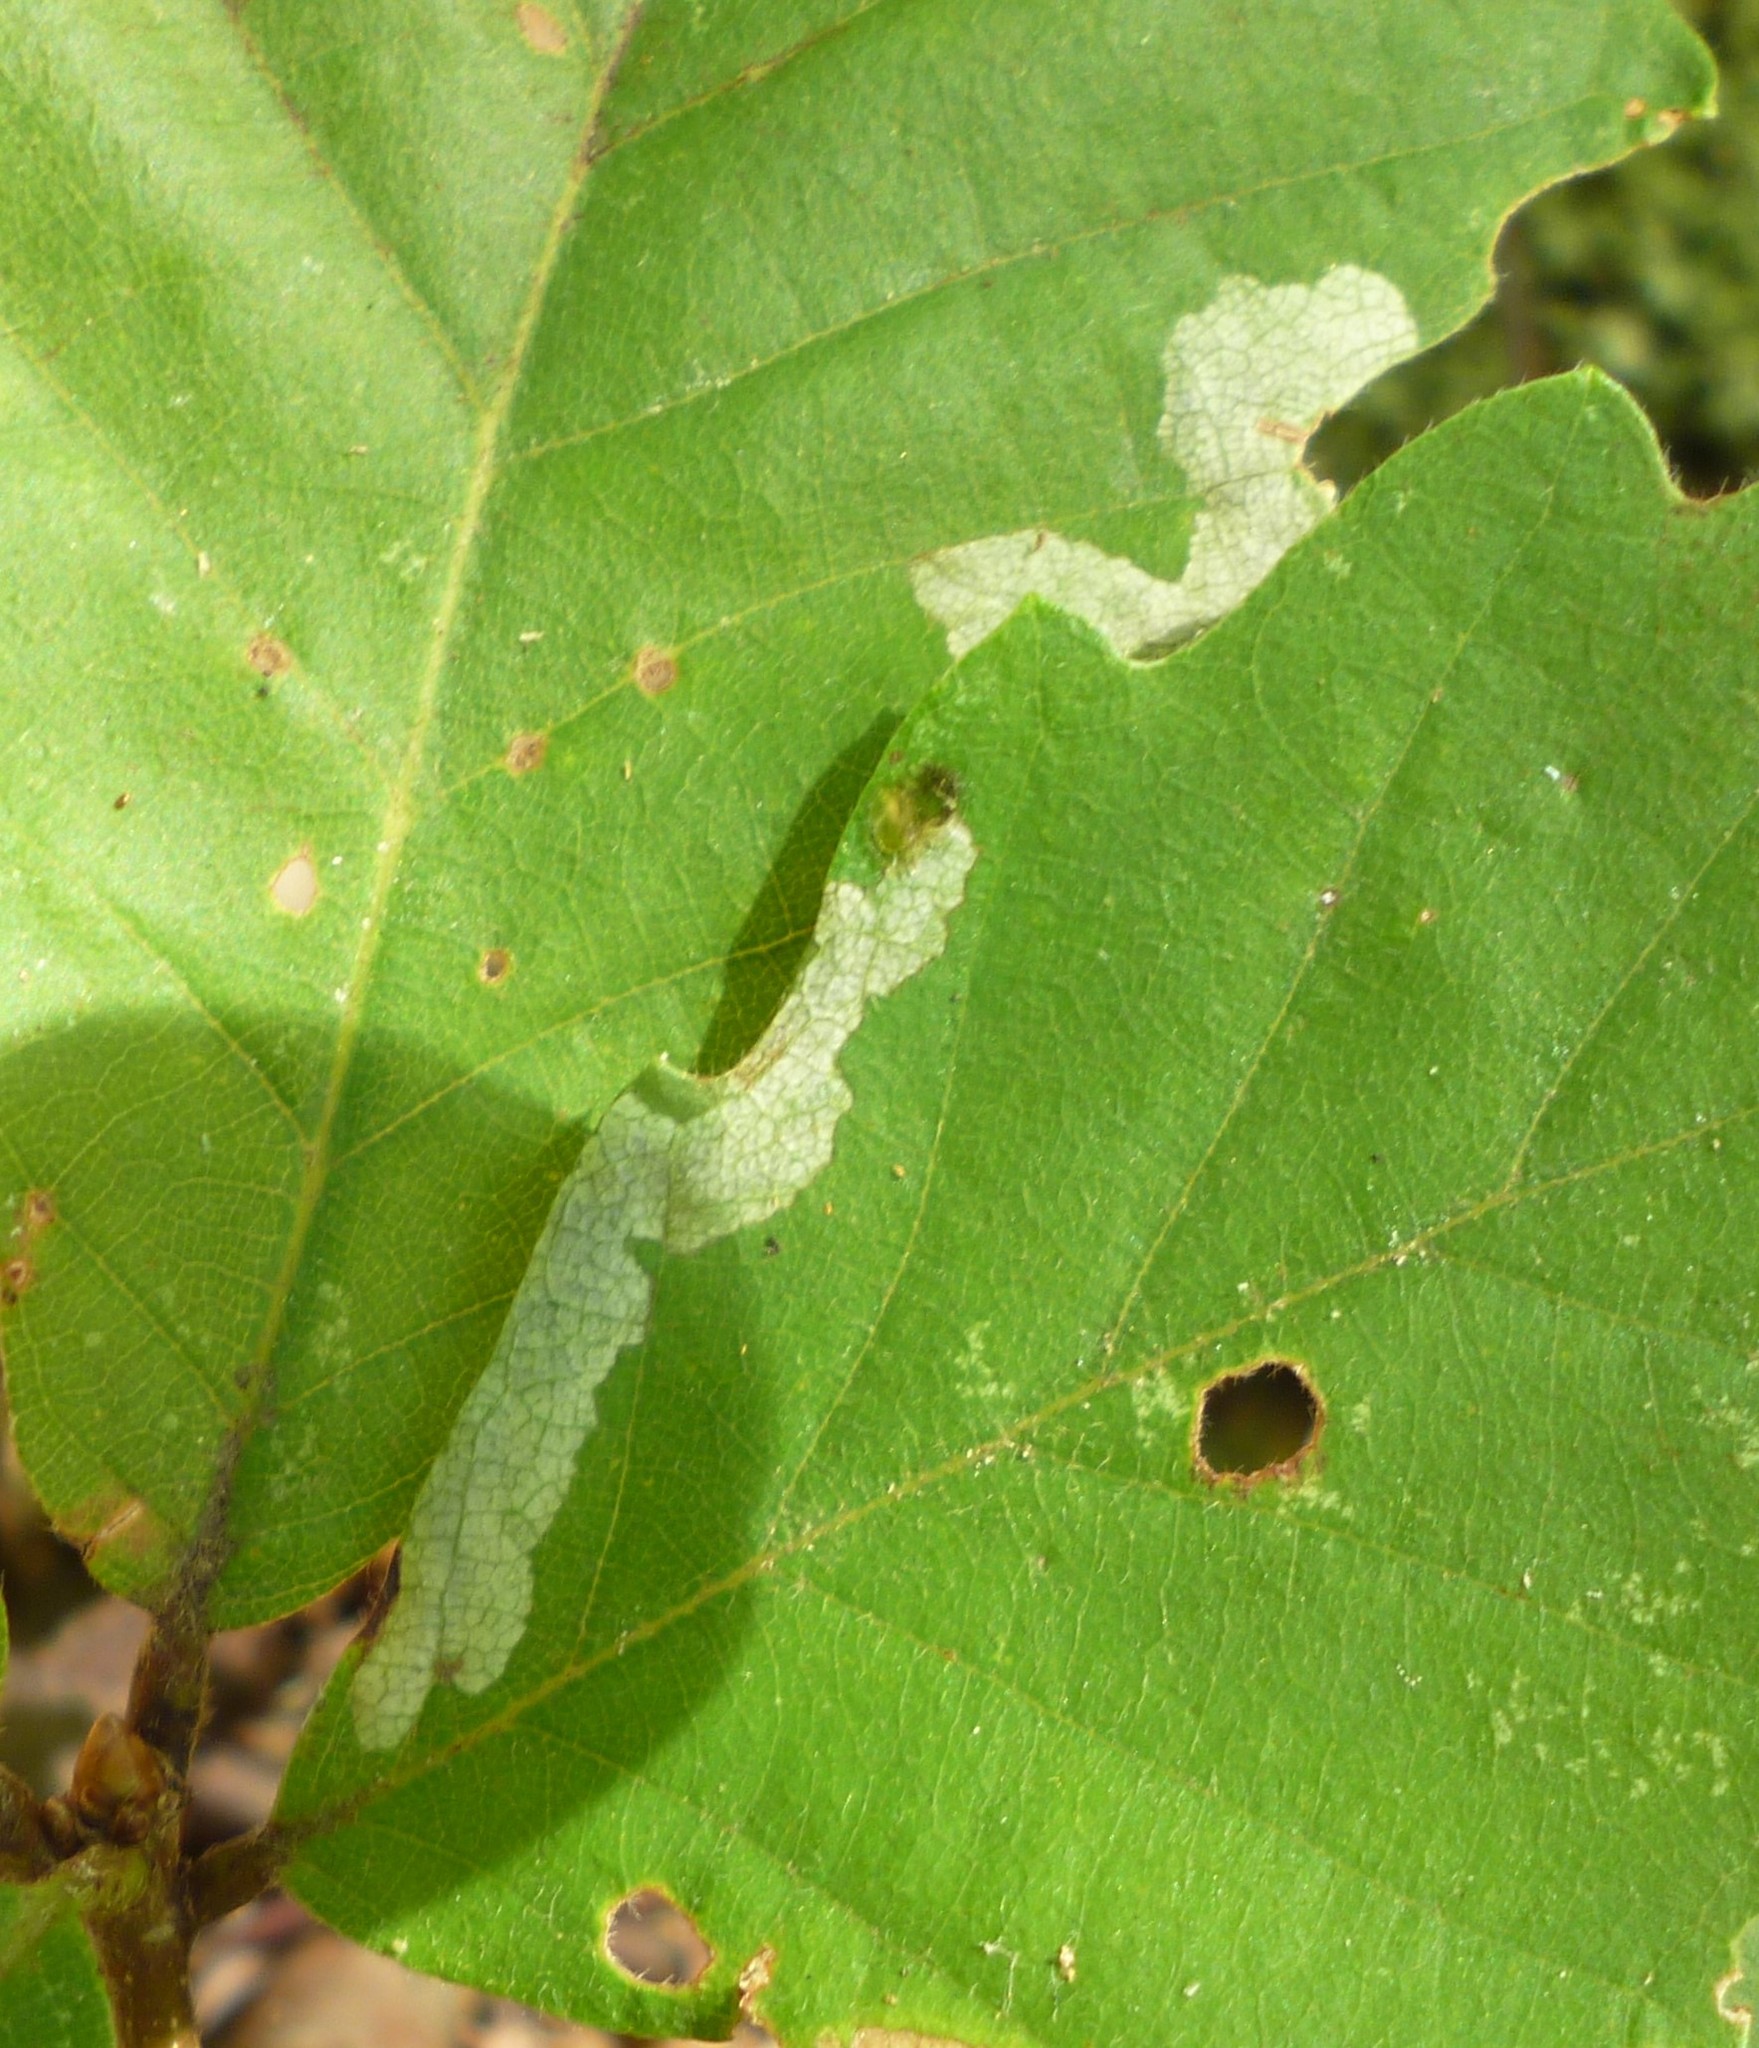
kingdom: Animalia
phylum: Arthropoda
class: Insecta
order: Coleoptera
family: Chrysomelidae
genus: Baliosus
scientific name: Baliosus nervosus
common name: Basswood leaf miner
